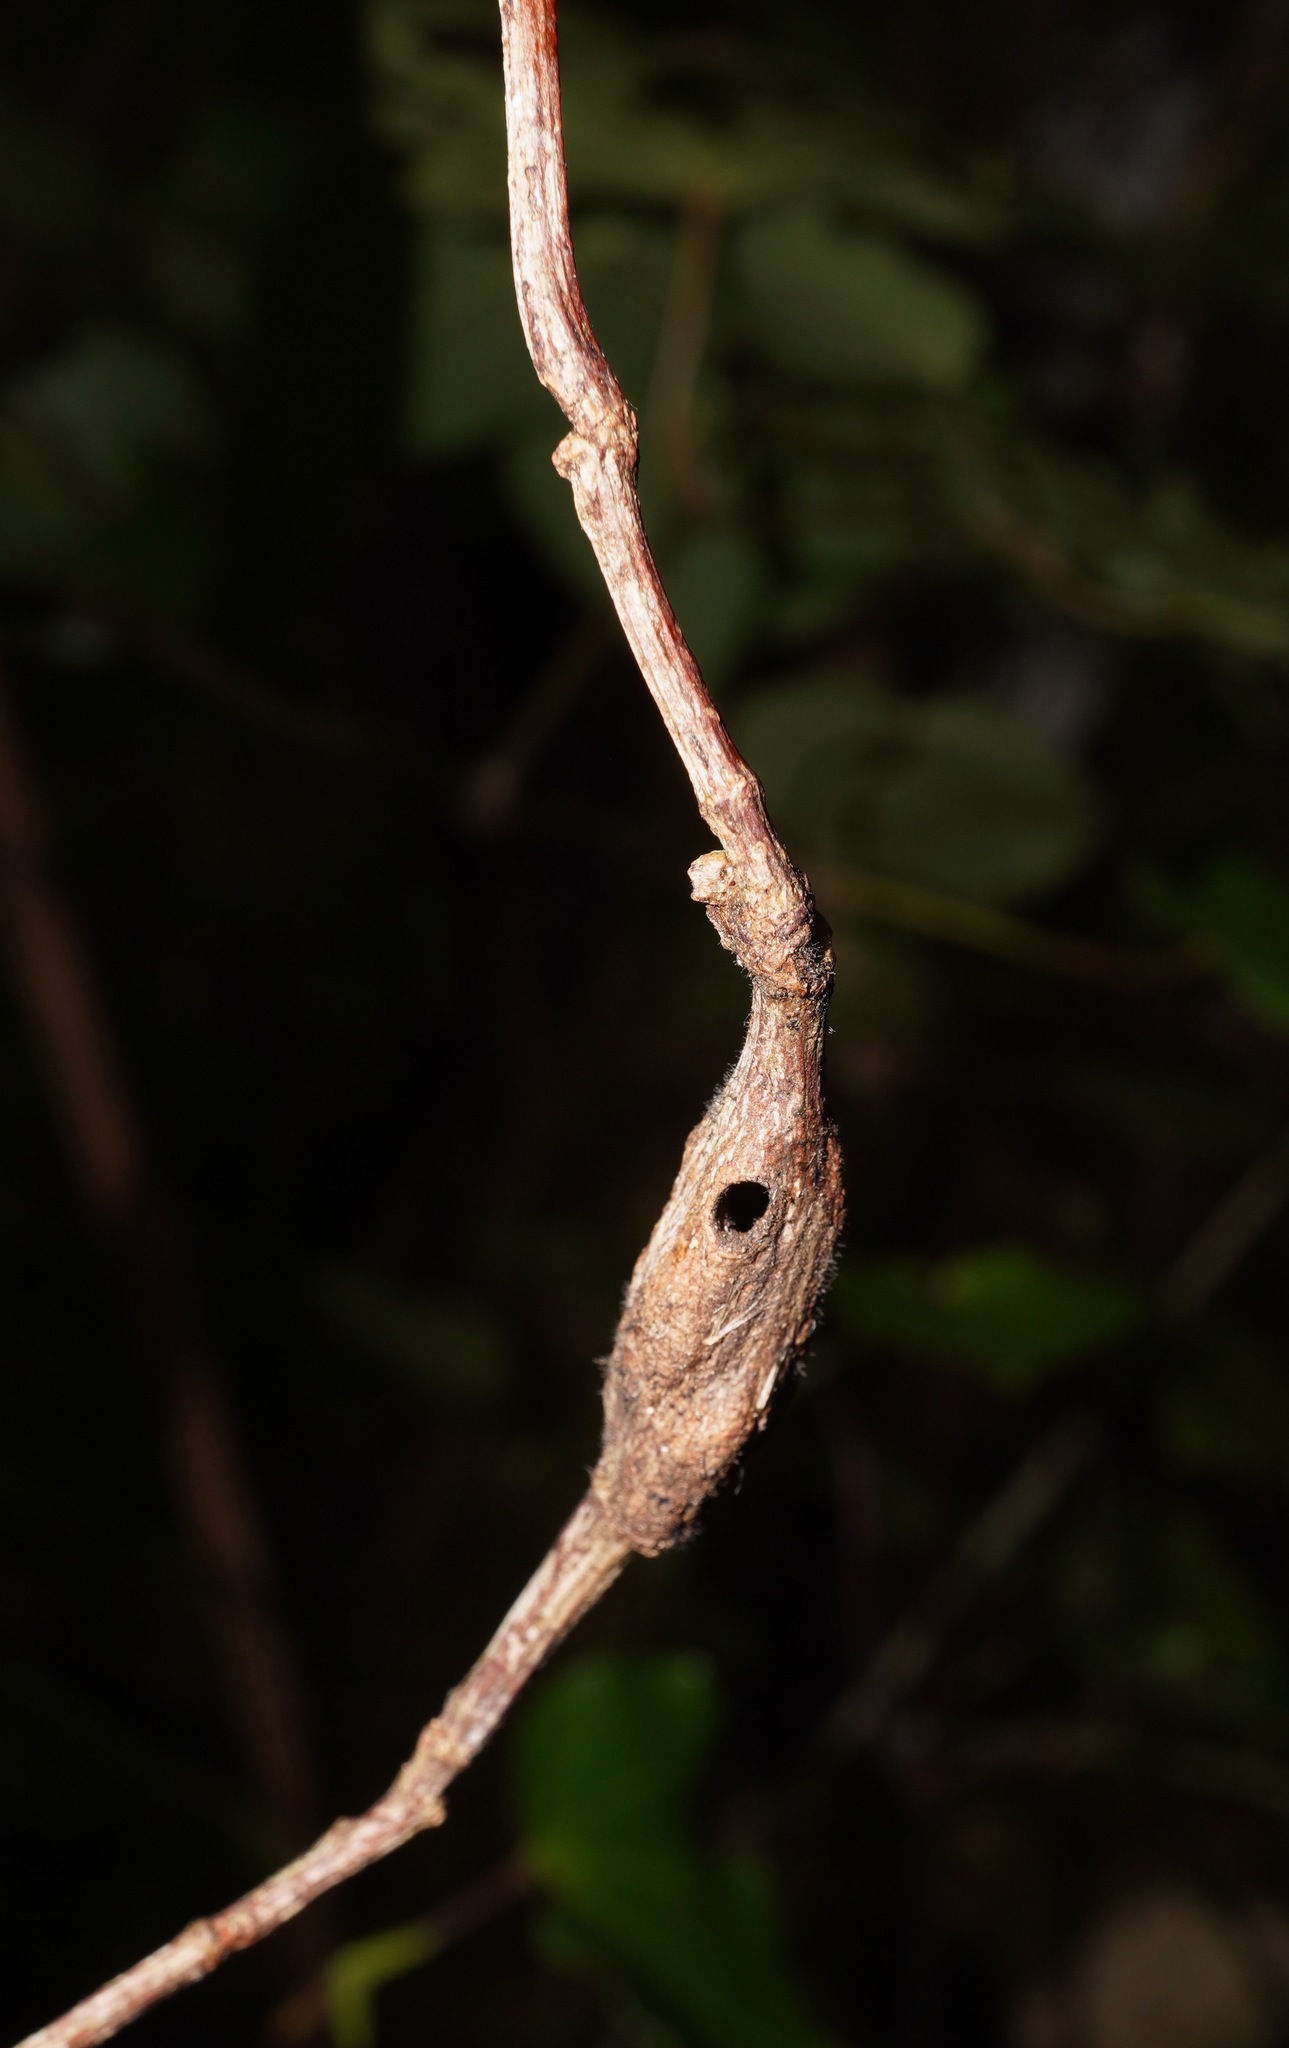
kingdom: Animalia
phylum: Arthropoda
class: Insecta
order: Lepidoptera
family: Thyrididae
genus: Morova
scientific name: Morova subfasciata
